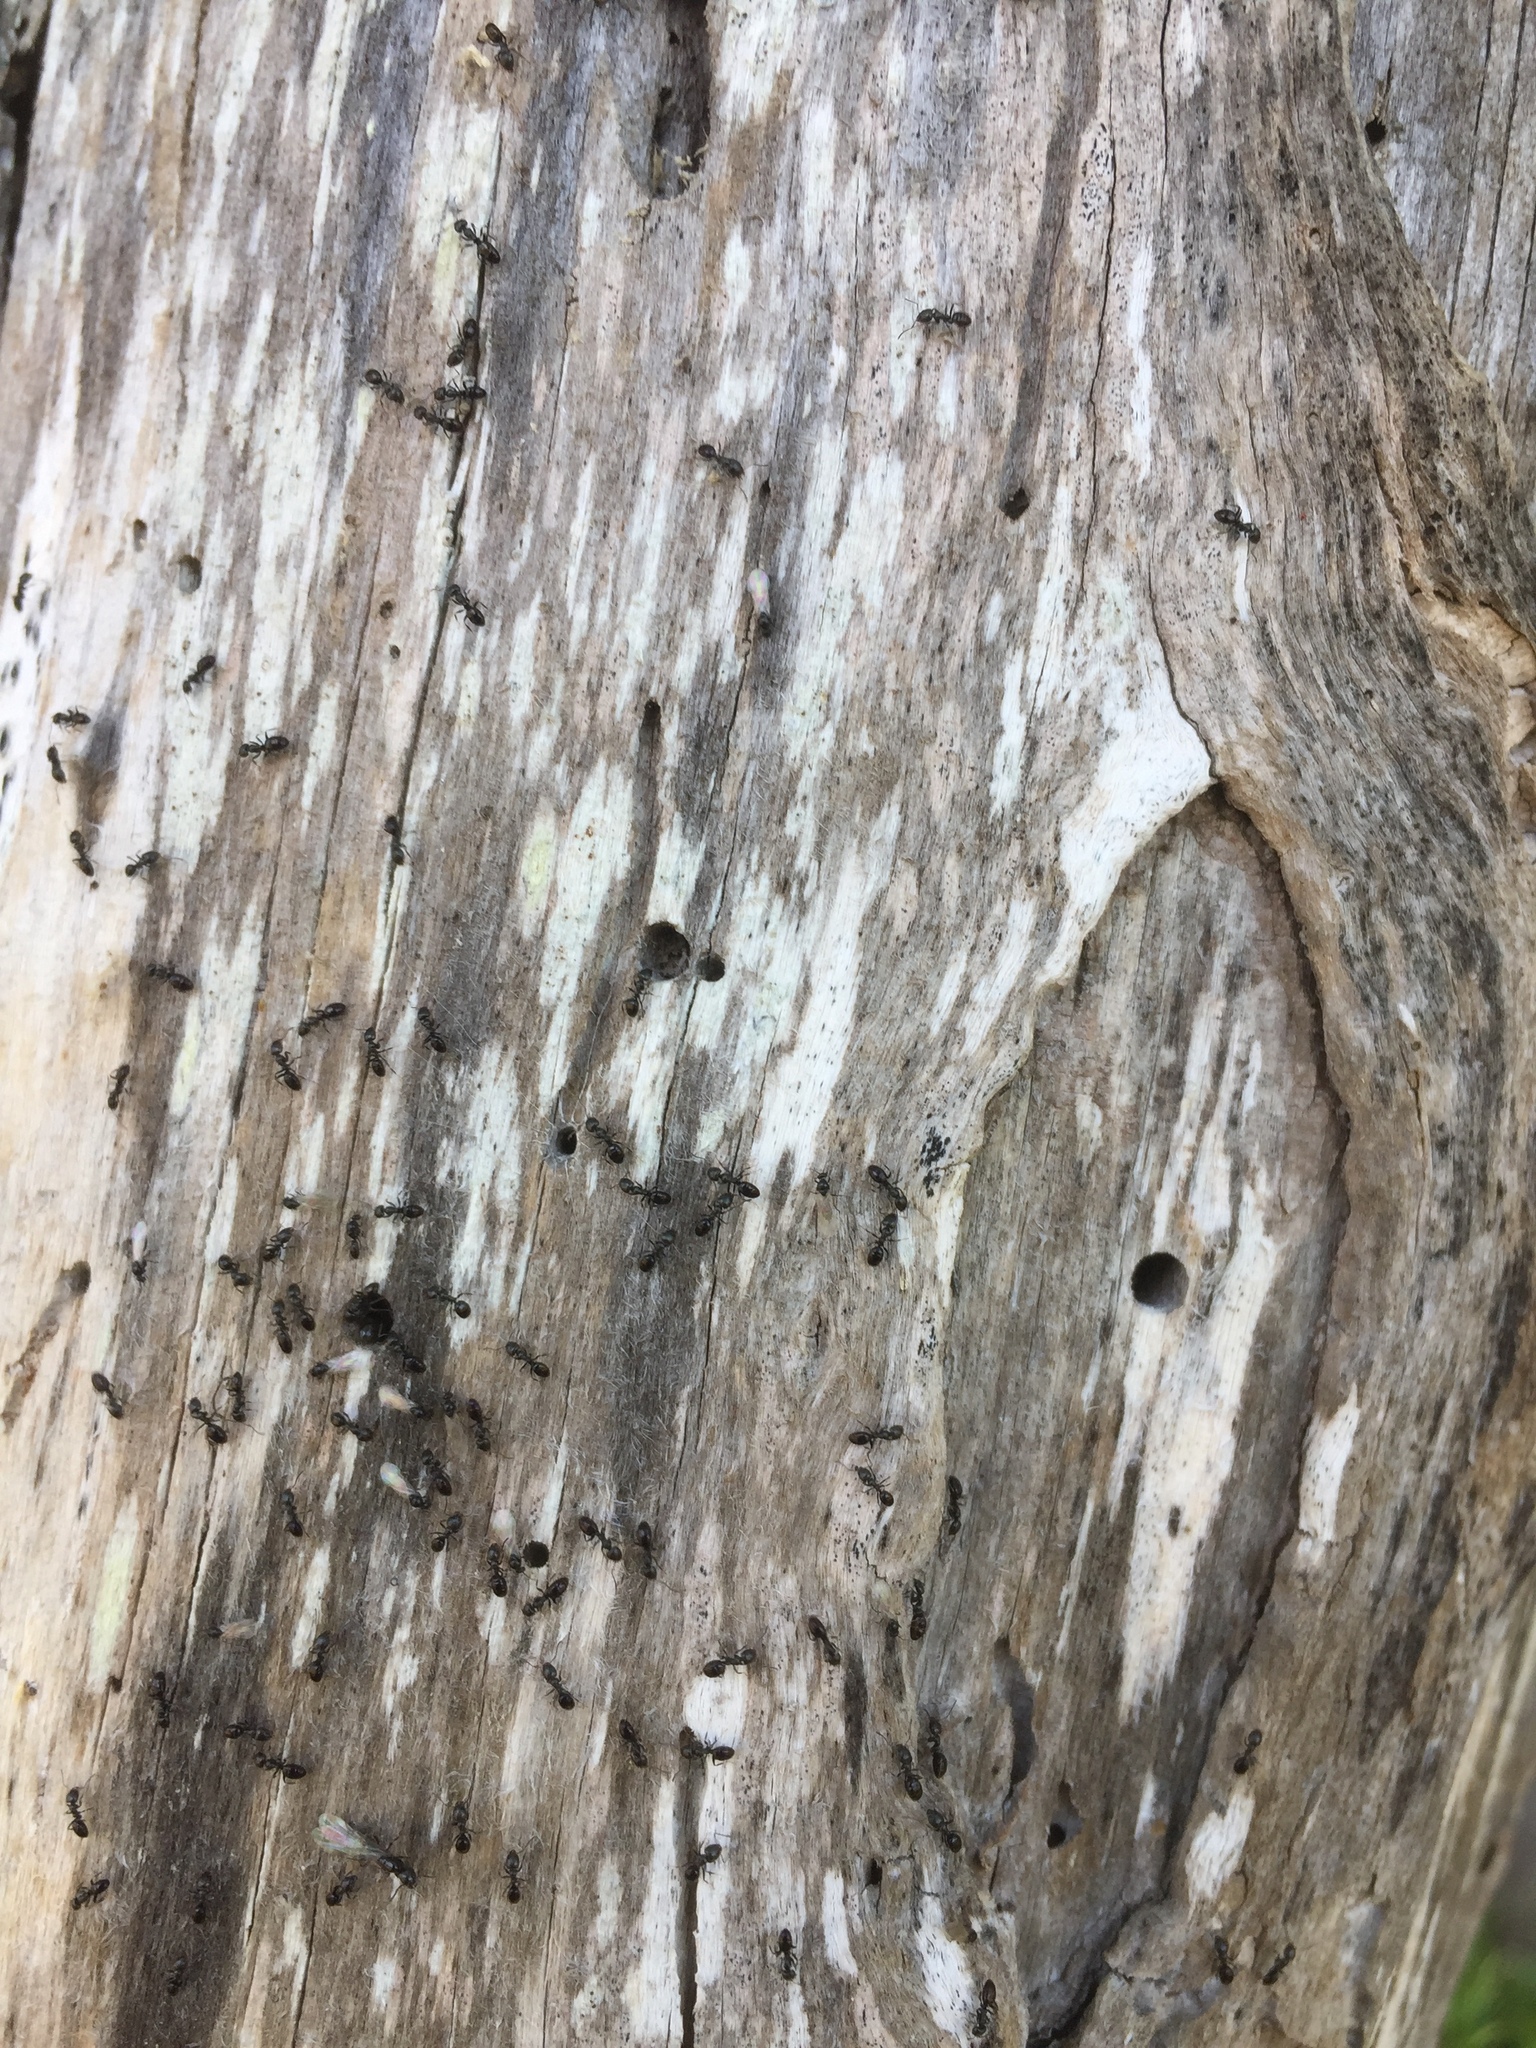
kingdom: Animalia
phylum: Arthropoda
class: Insecta
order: Hymenoptera
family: Formicidae
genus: Lepisiota
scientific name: Lepisiota capensis
